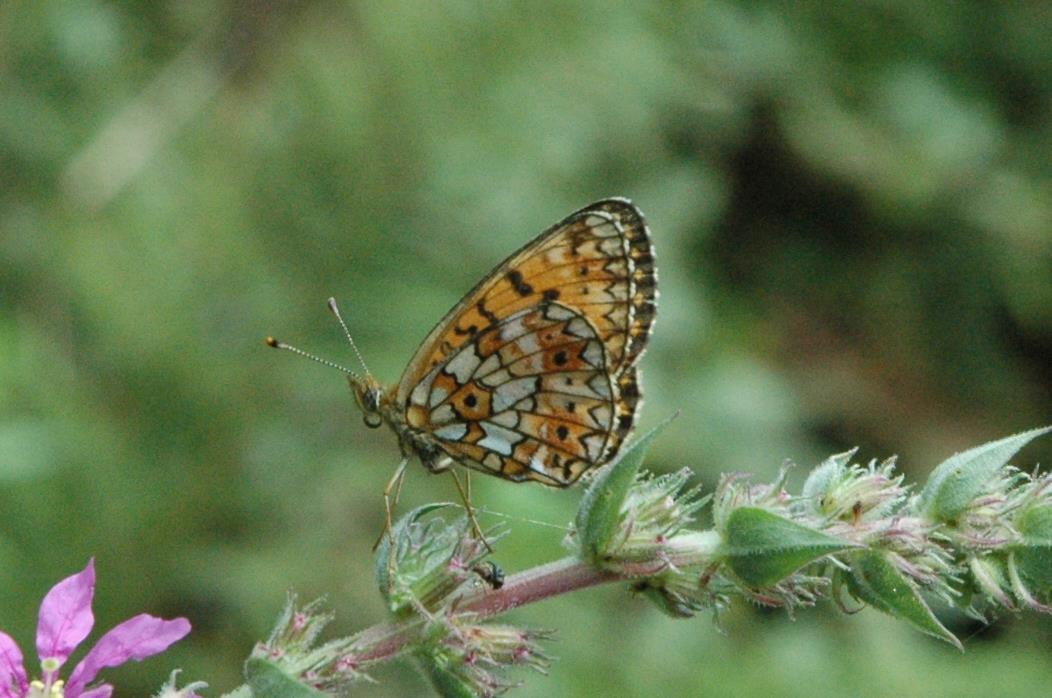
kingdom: Animalia
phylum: Arthropoda
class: Insecta
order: Lepidoptera
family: Nymphalidae
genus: Boloria
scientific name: Boloria selene
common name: Small pearl-bordered fritillary
